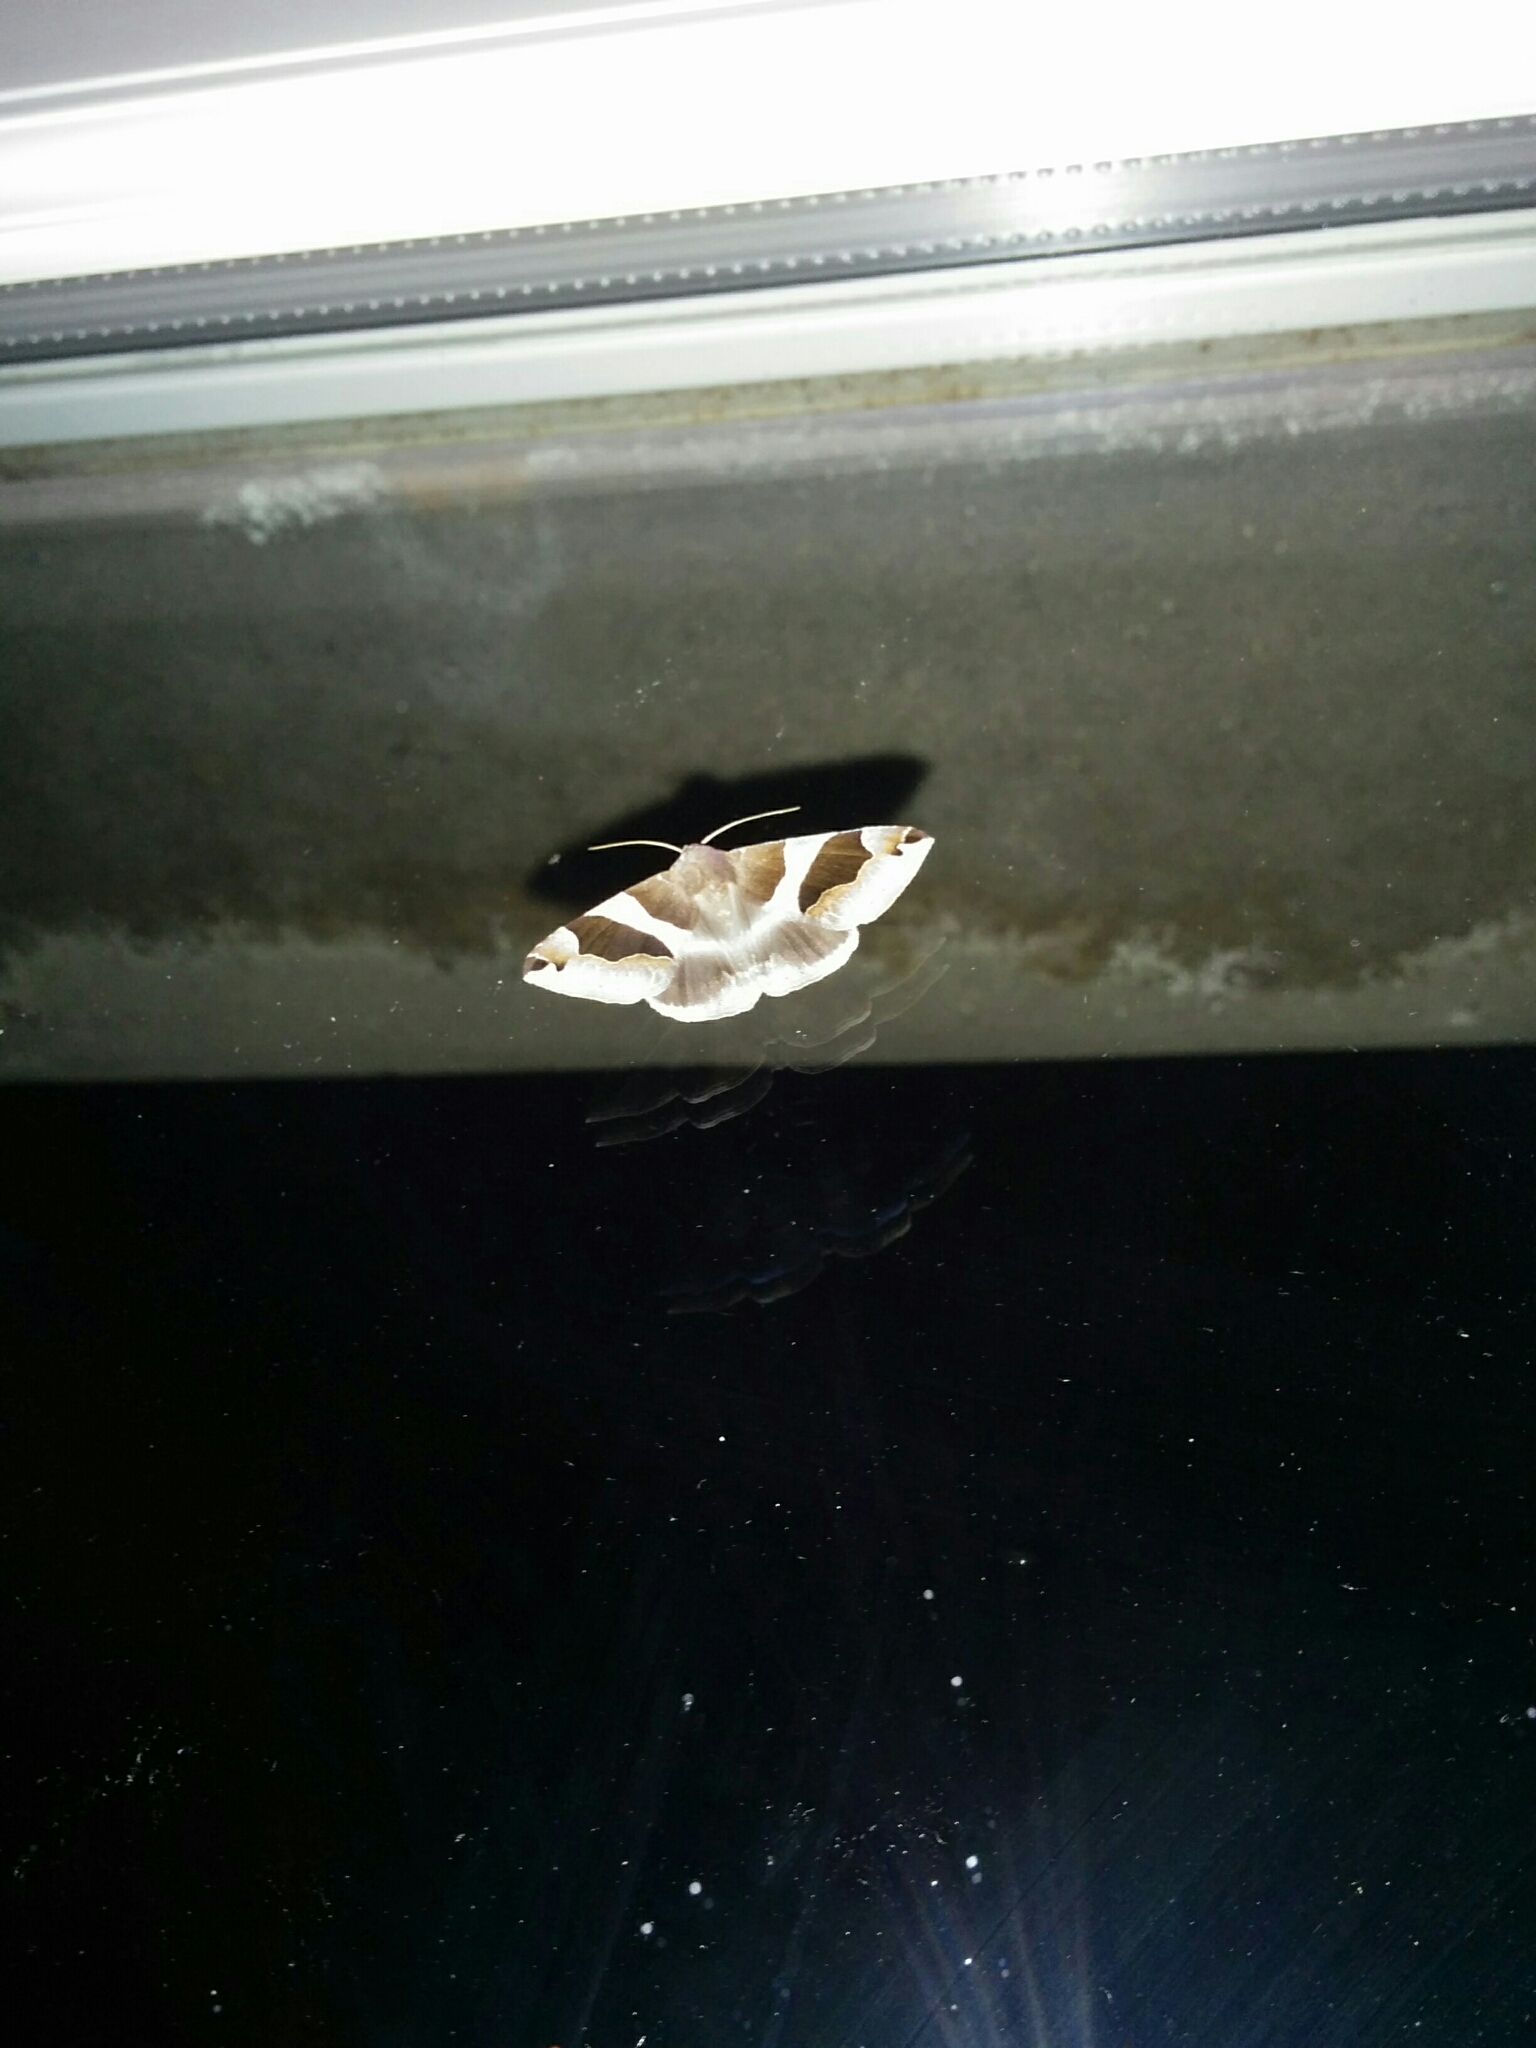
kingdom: Animalia
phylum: Arthropoda
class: Insecta
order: Lepidoptera
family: Erebidae
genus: Dysgonia
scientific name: Dysgonia algira
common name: Passenger
